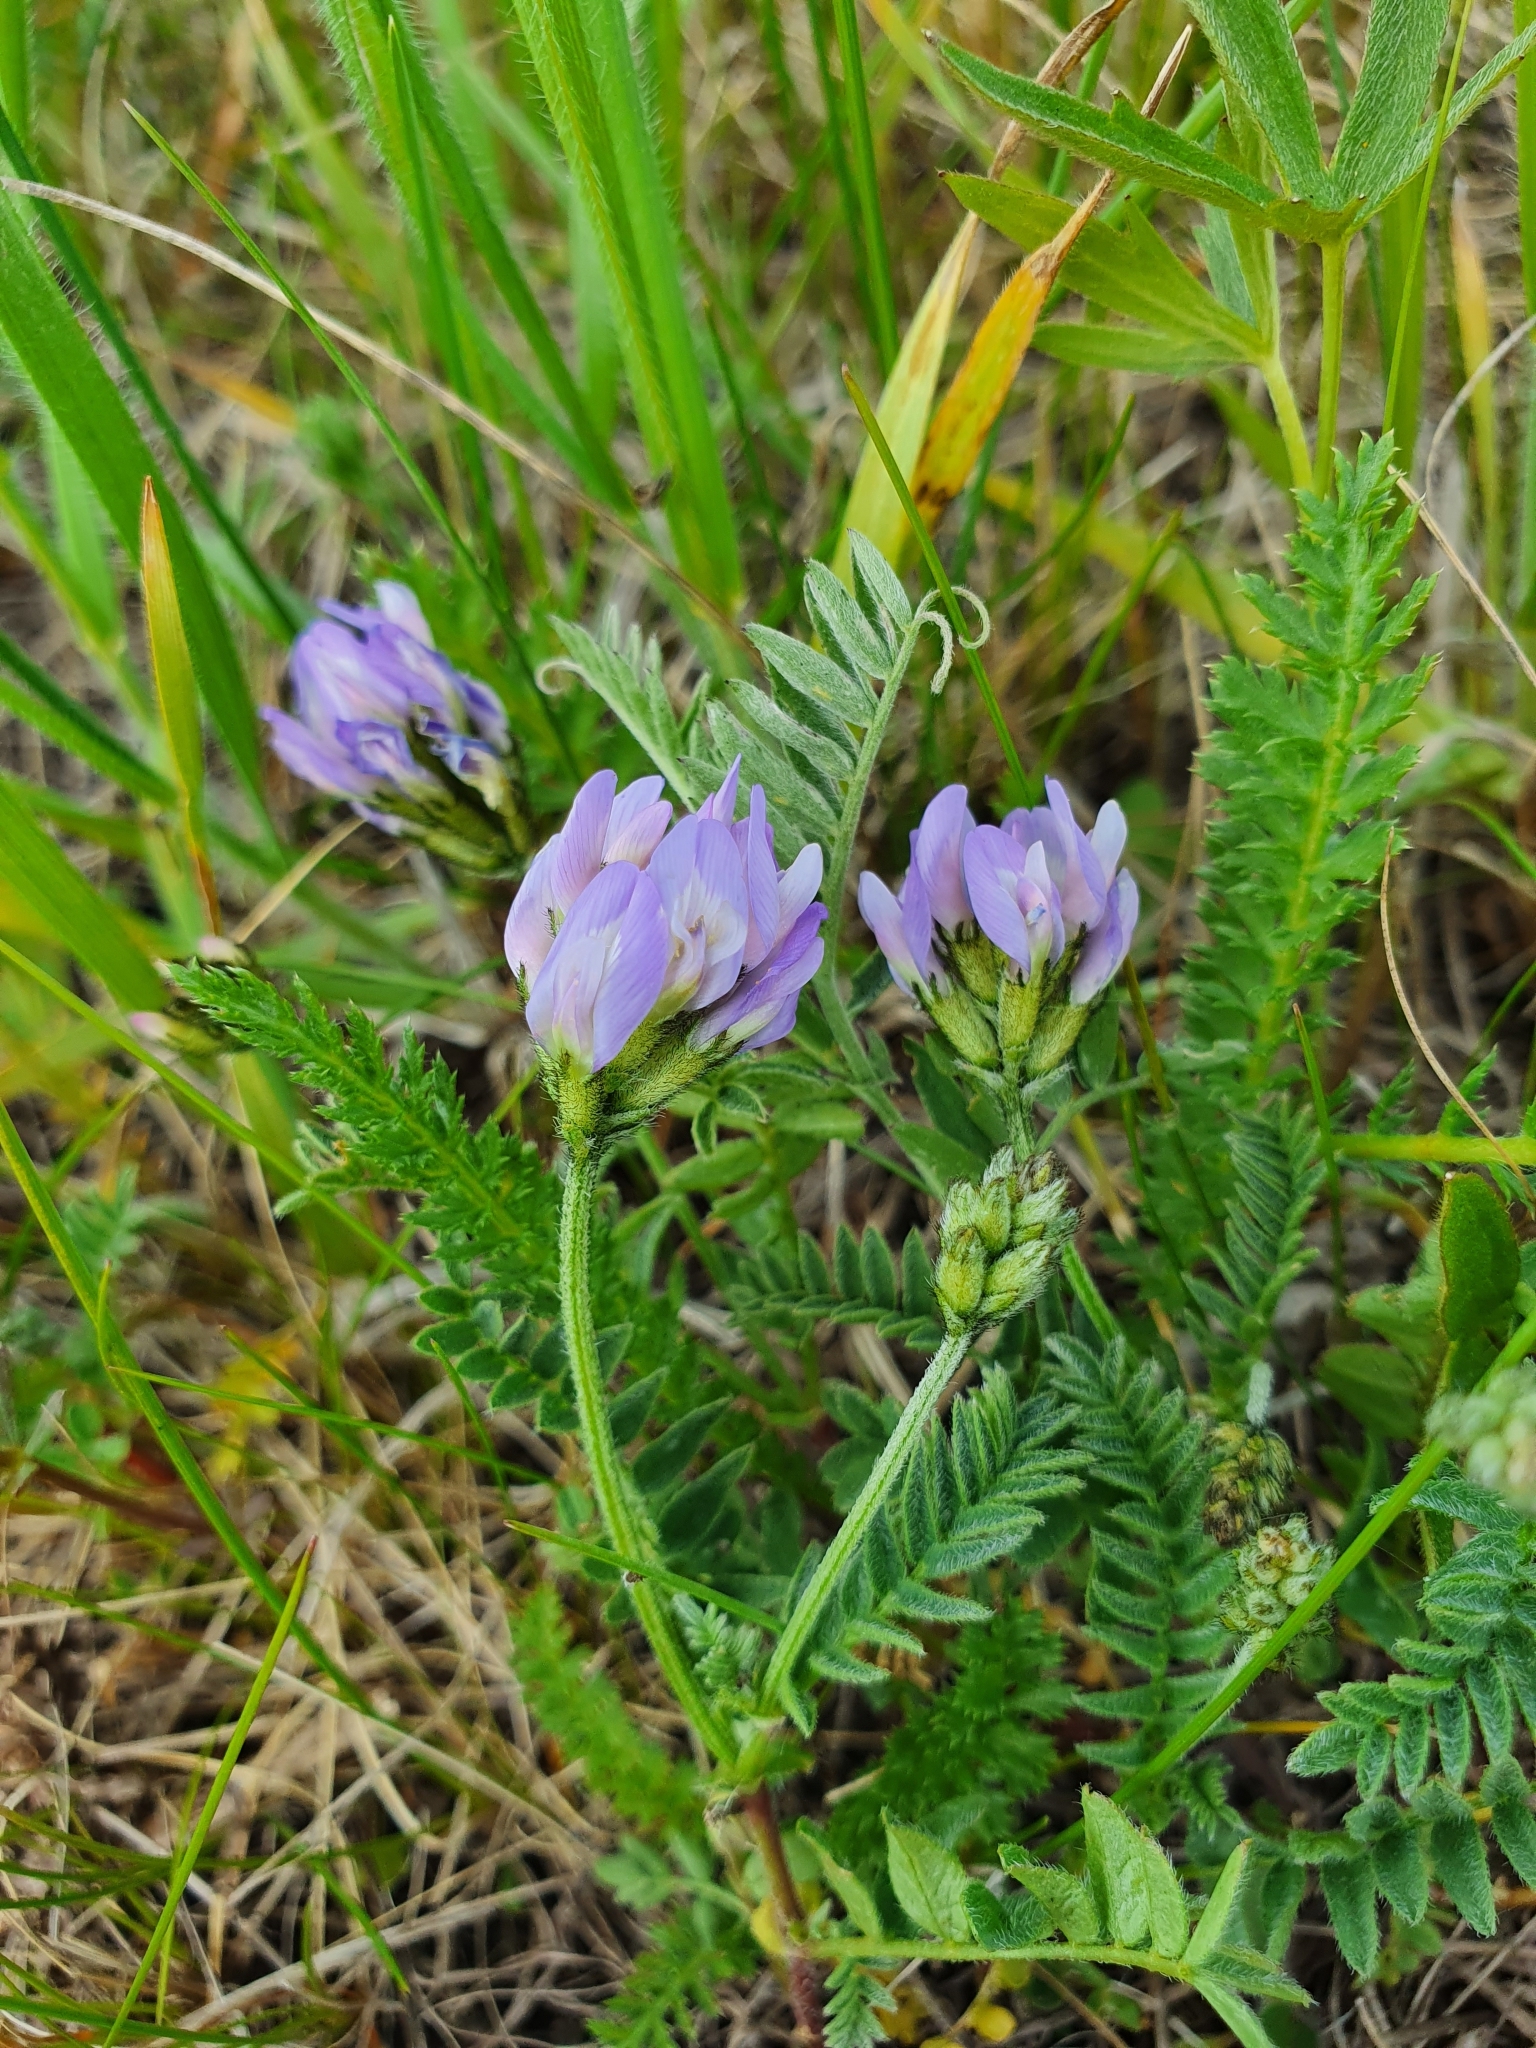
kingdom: Plantae
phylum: Tracheophyta
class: Magnoliopsida
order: Fabales
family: Fabaceae
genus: Astragalus
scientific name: Astragalus danicus
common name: Purple milk-vetch
